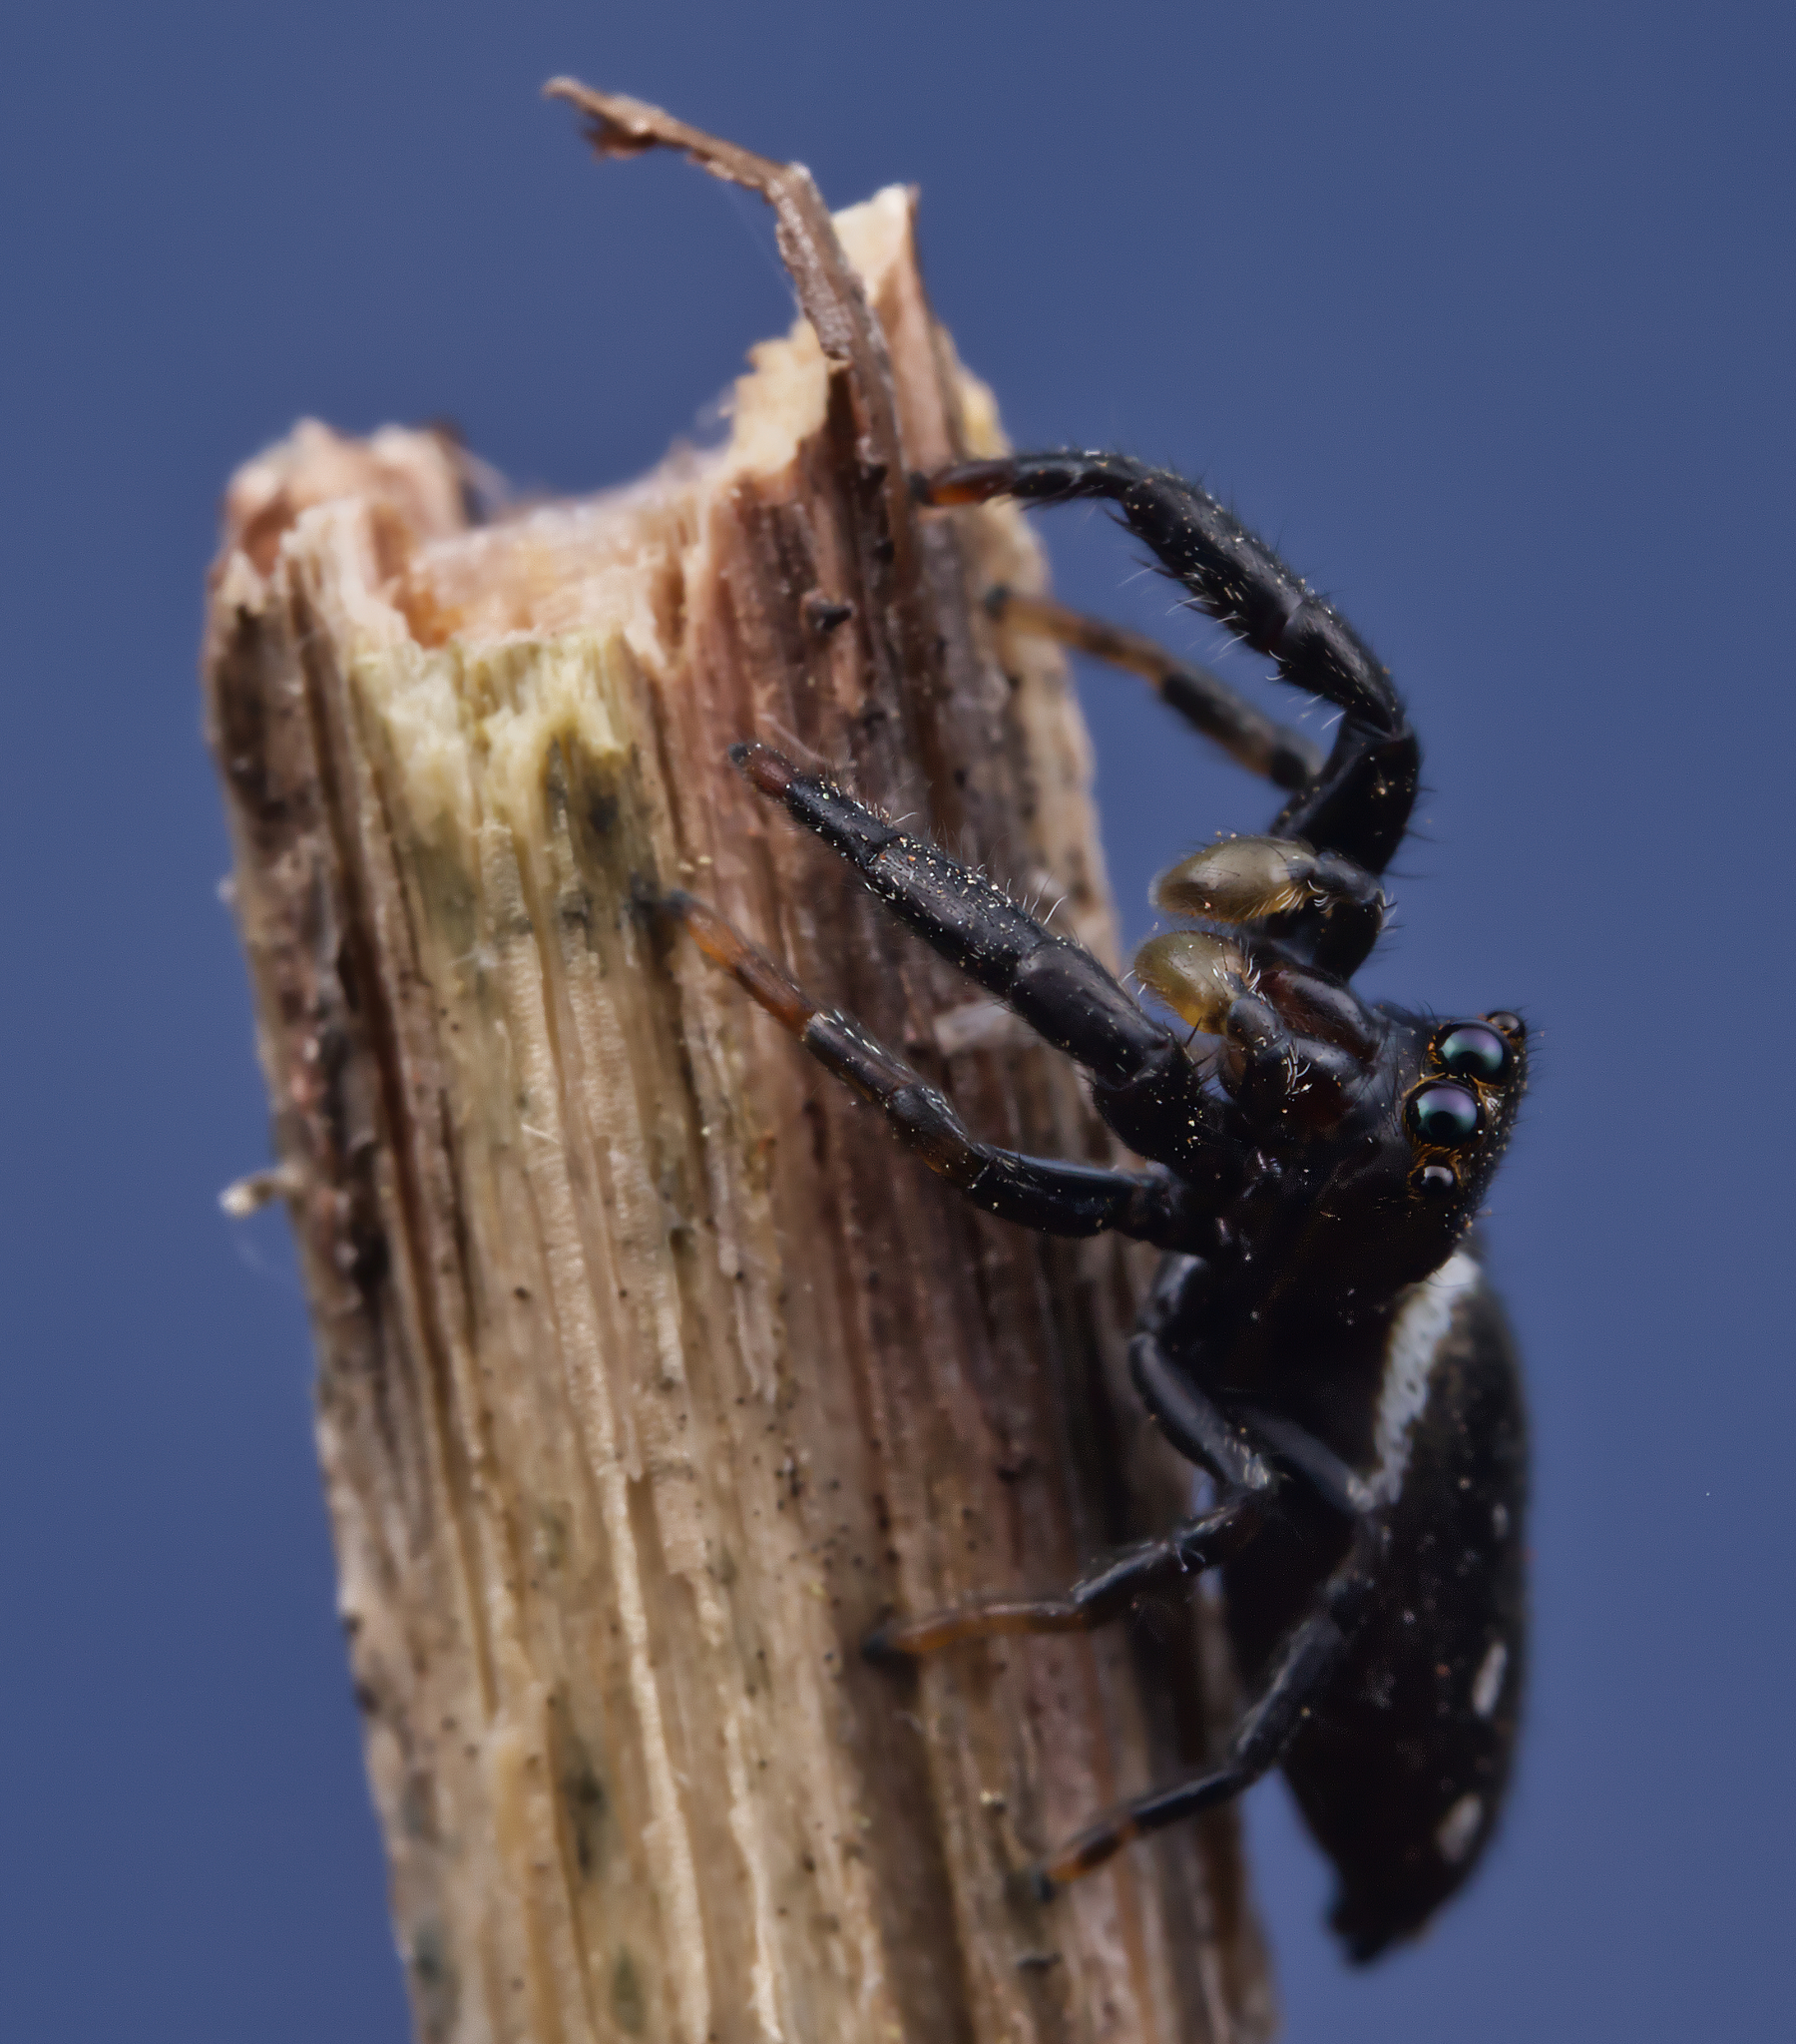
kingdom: Animalia
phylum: Arthropoda
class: Arachnida
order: Araneae
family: Salticidae
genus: Marpissa
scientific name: Marpissa formosa
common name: Short-bellied slender jumping spider
